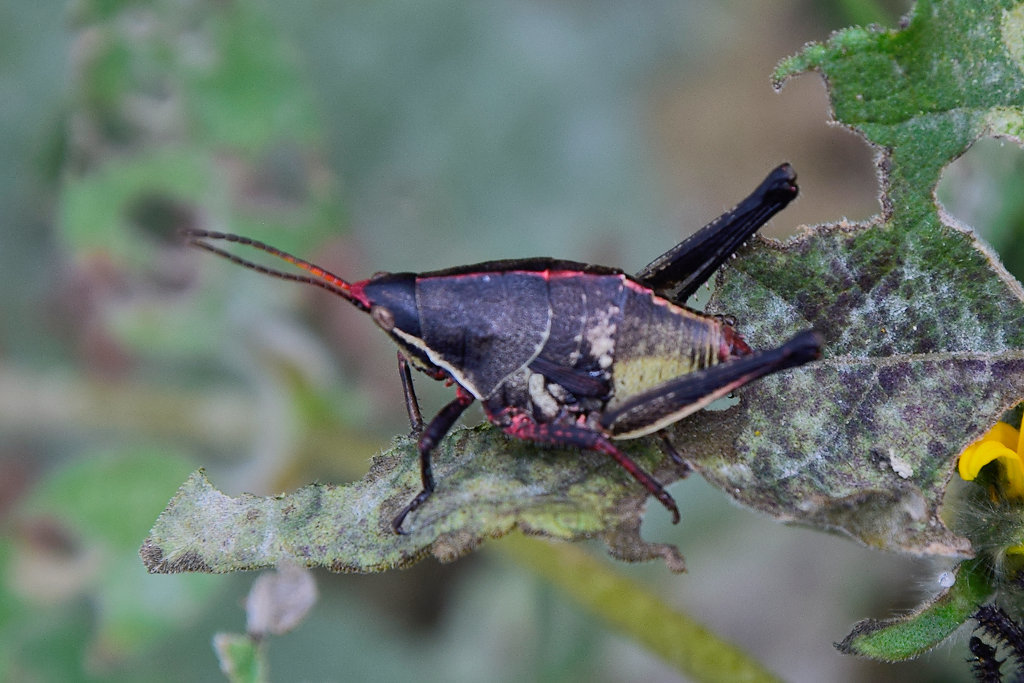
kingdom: Animalia
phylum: Arthropoda
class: Insecta
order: Orthoptera
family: Pyrgomorphidae
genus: Sphenarium
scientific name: Sphenarium purpurascens
